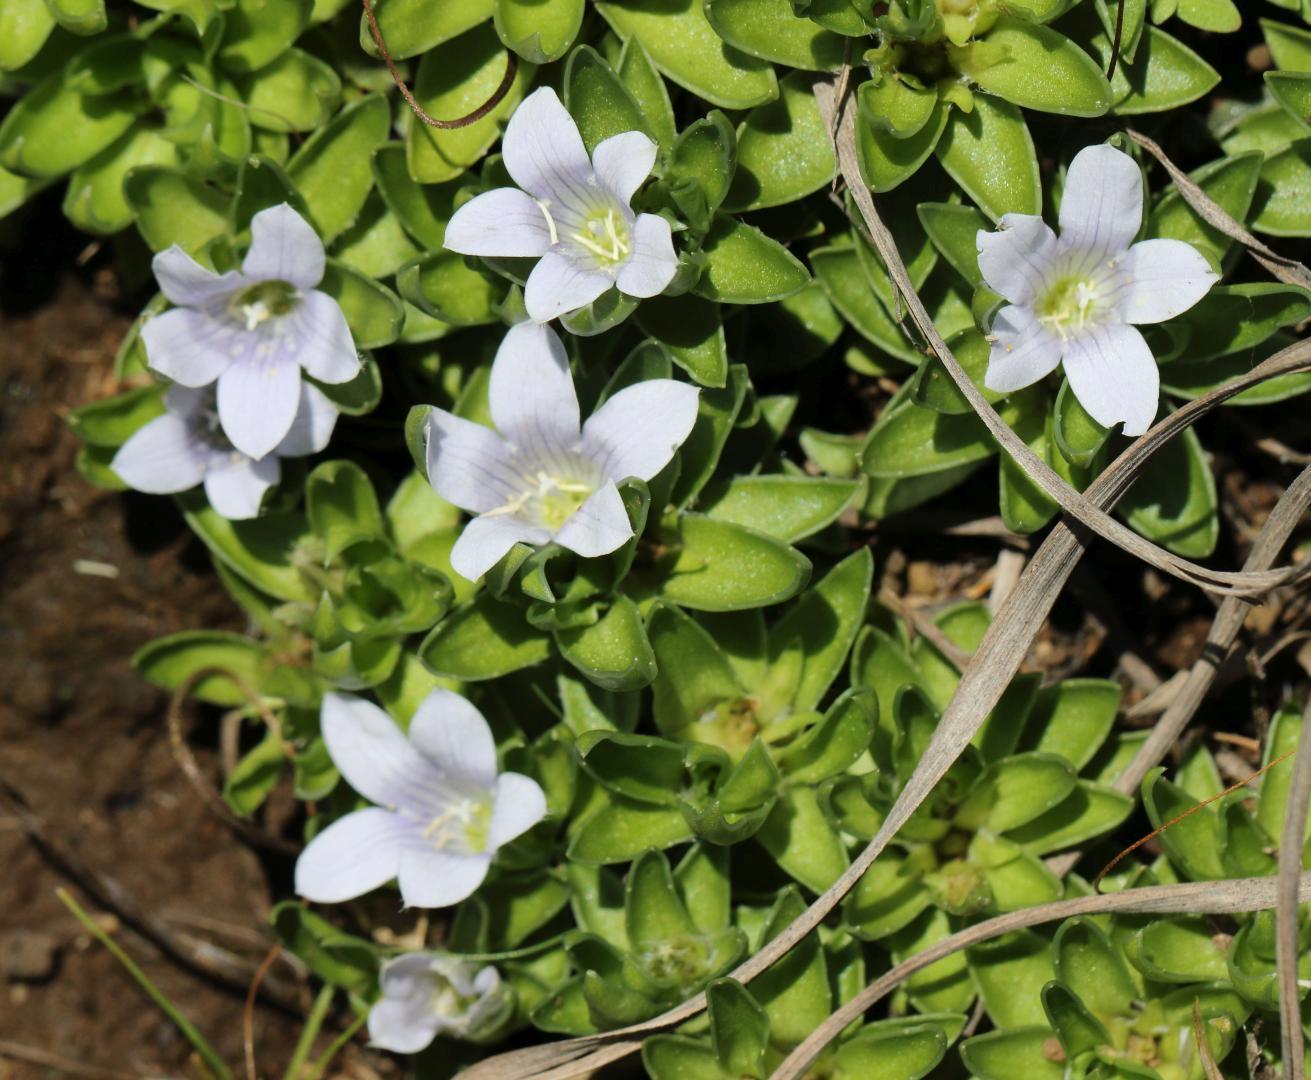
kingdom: Plantae
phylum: Tracheophyta
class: Magnoliopsida
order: Asterales
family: Campanulaceae
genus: Craterocapsa
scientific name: Craterocapsa tarsodes
